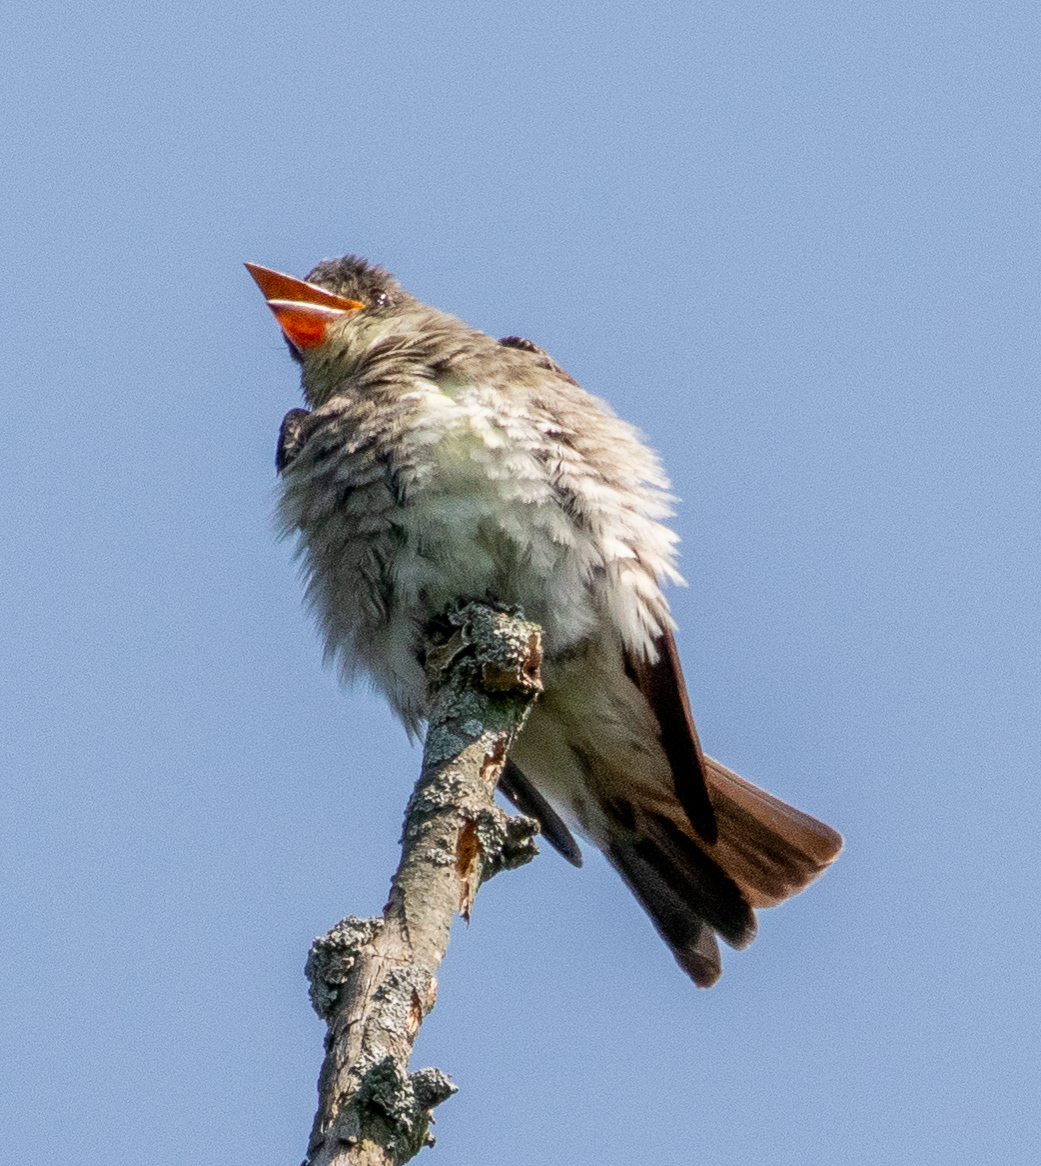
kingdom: Animalia
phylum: Chordata
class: Aves
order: Passeriformes
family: Tyrannidae
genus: Contopus
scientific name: Contopus cooperi
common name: Olive-sided flycatcher
